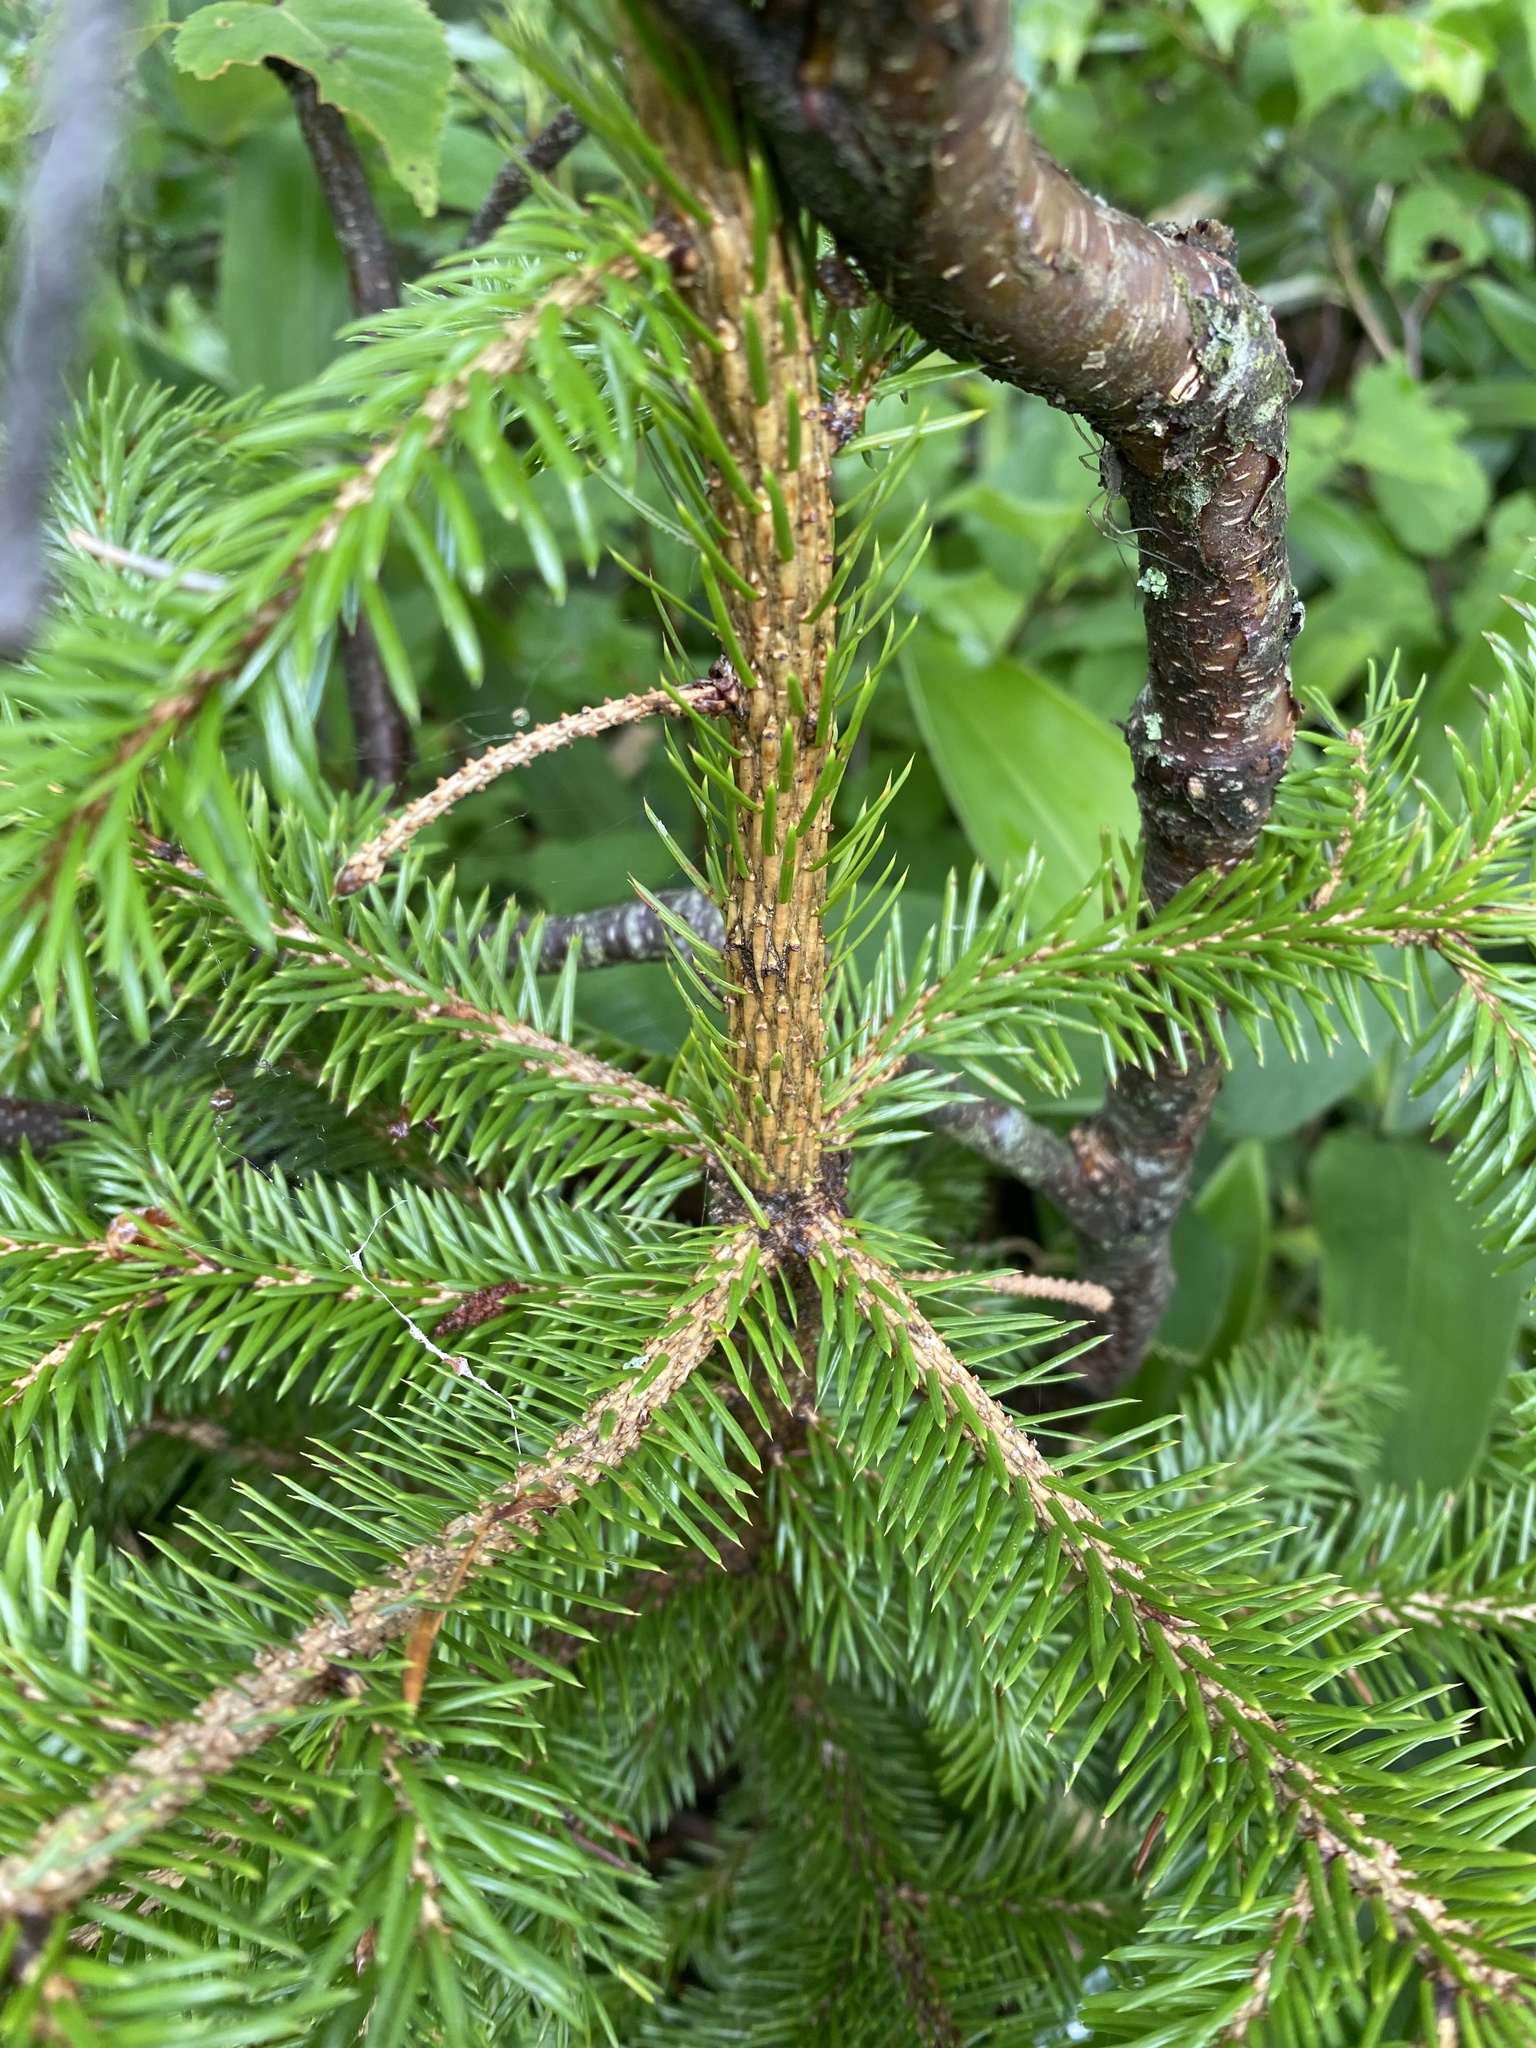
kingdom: Plantae
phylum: Tracheophyta
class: Pinopsida
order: Pinales
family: Pinaceae
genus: Picea
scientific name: Picea jezoensis
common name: Yeddo spruce
